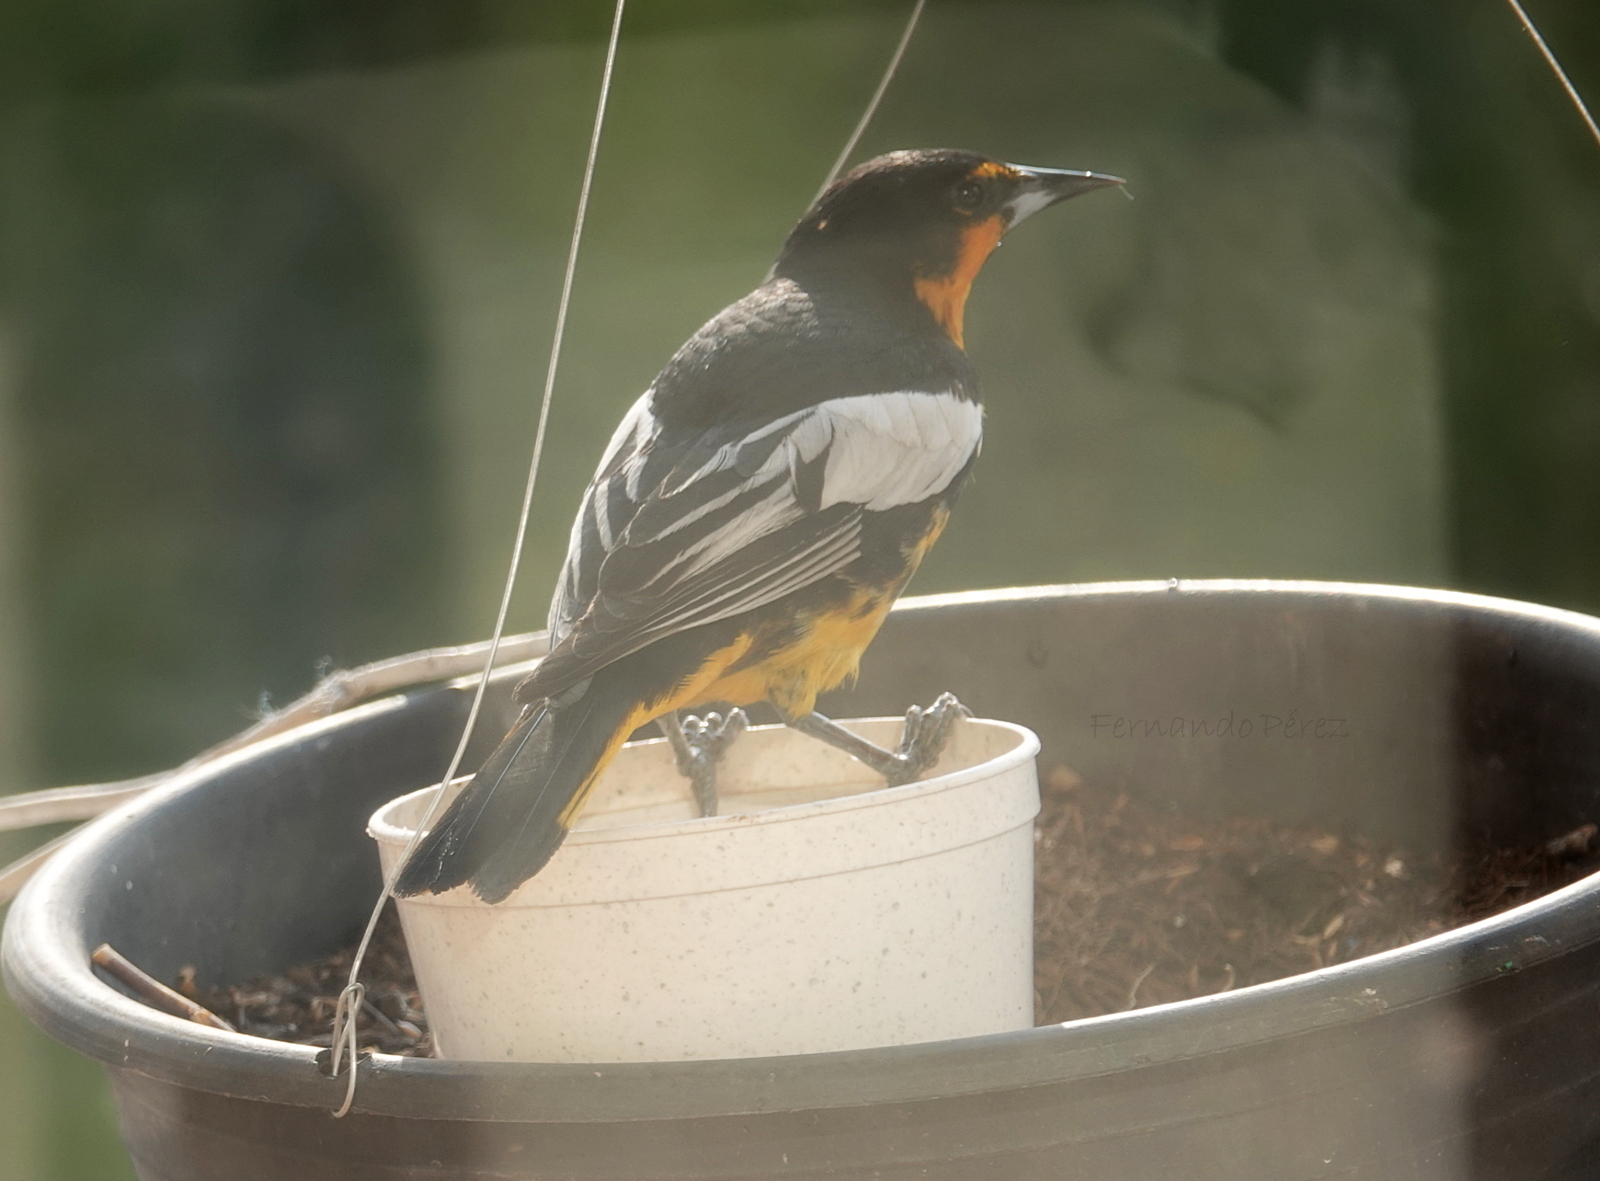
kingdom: Animalia
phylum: Chordata
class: Aves
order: Passeriformes
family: Icteridae
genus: Icterus
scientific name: Icterus abeillei
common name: Black-backed oriole
